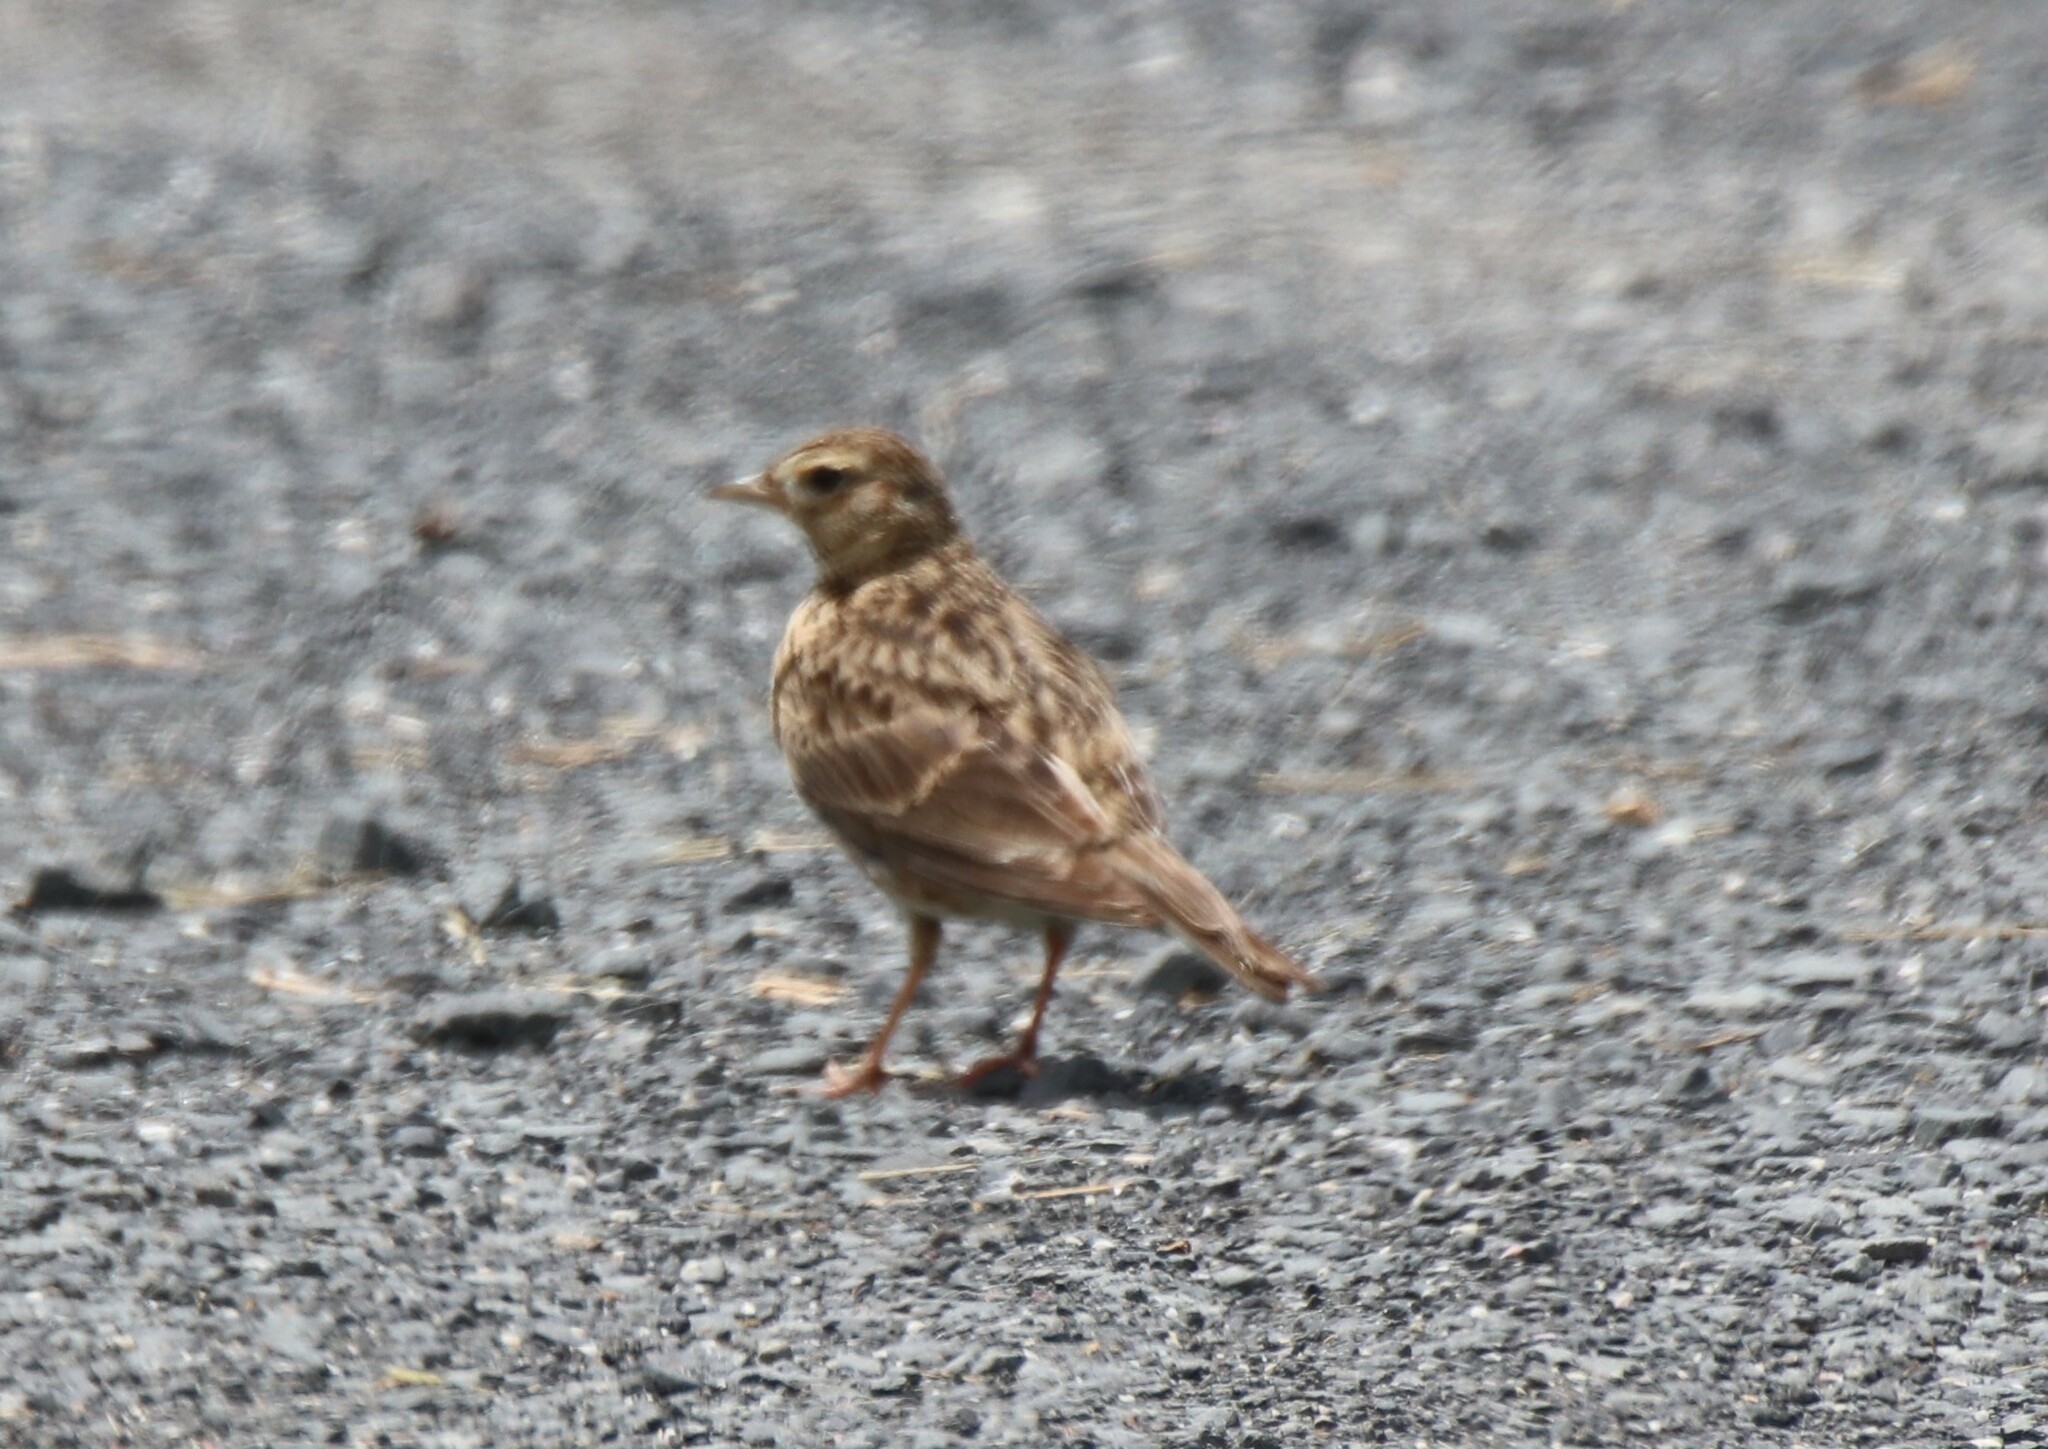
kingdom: Animalia
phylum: Chordata
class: Aves
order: Passeriformes
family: Alaudidae
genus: Alauda
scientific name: Alauda arvensis
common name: Eurasian skylark
